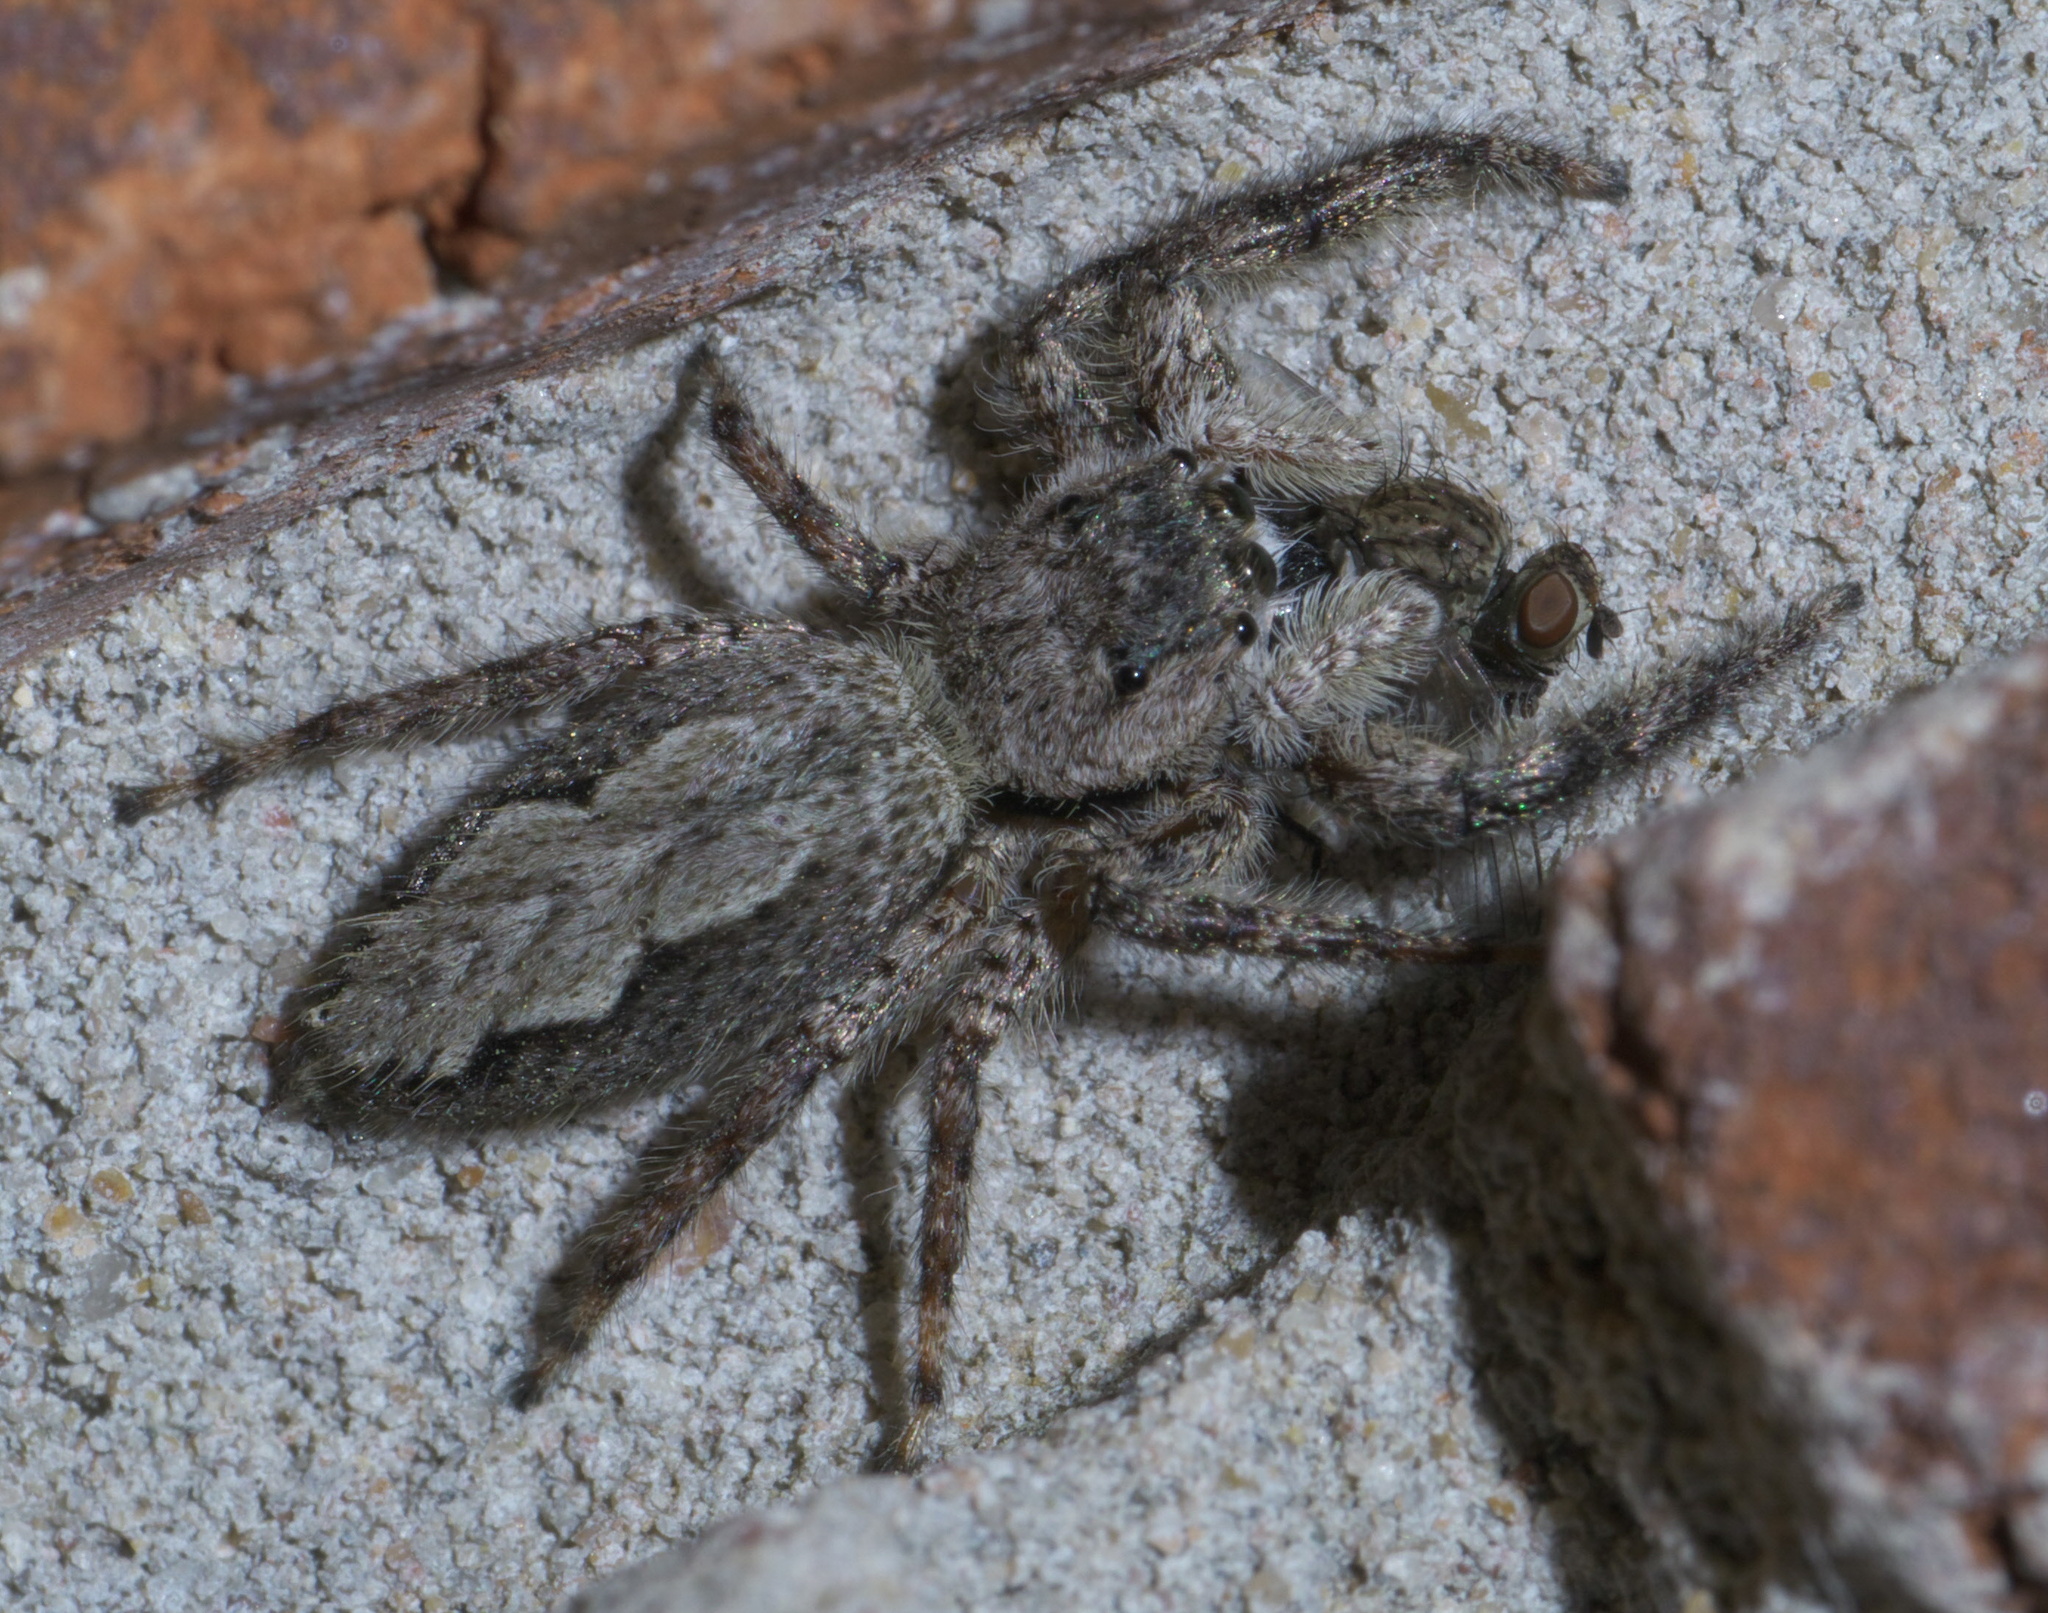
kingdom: Animalia
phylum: Arthropoda
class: Arachnida
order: Araneae
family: Salticidae
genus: Platycryptus
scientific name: Platycryptus undatus
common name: Tan jumping spider
